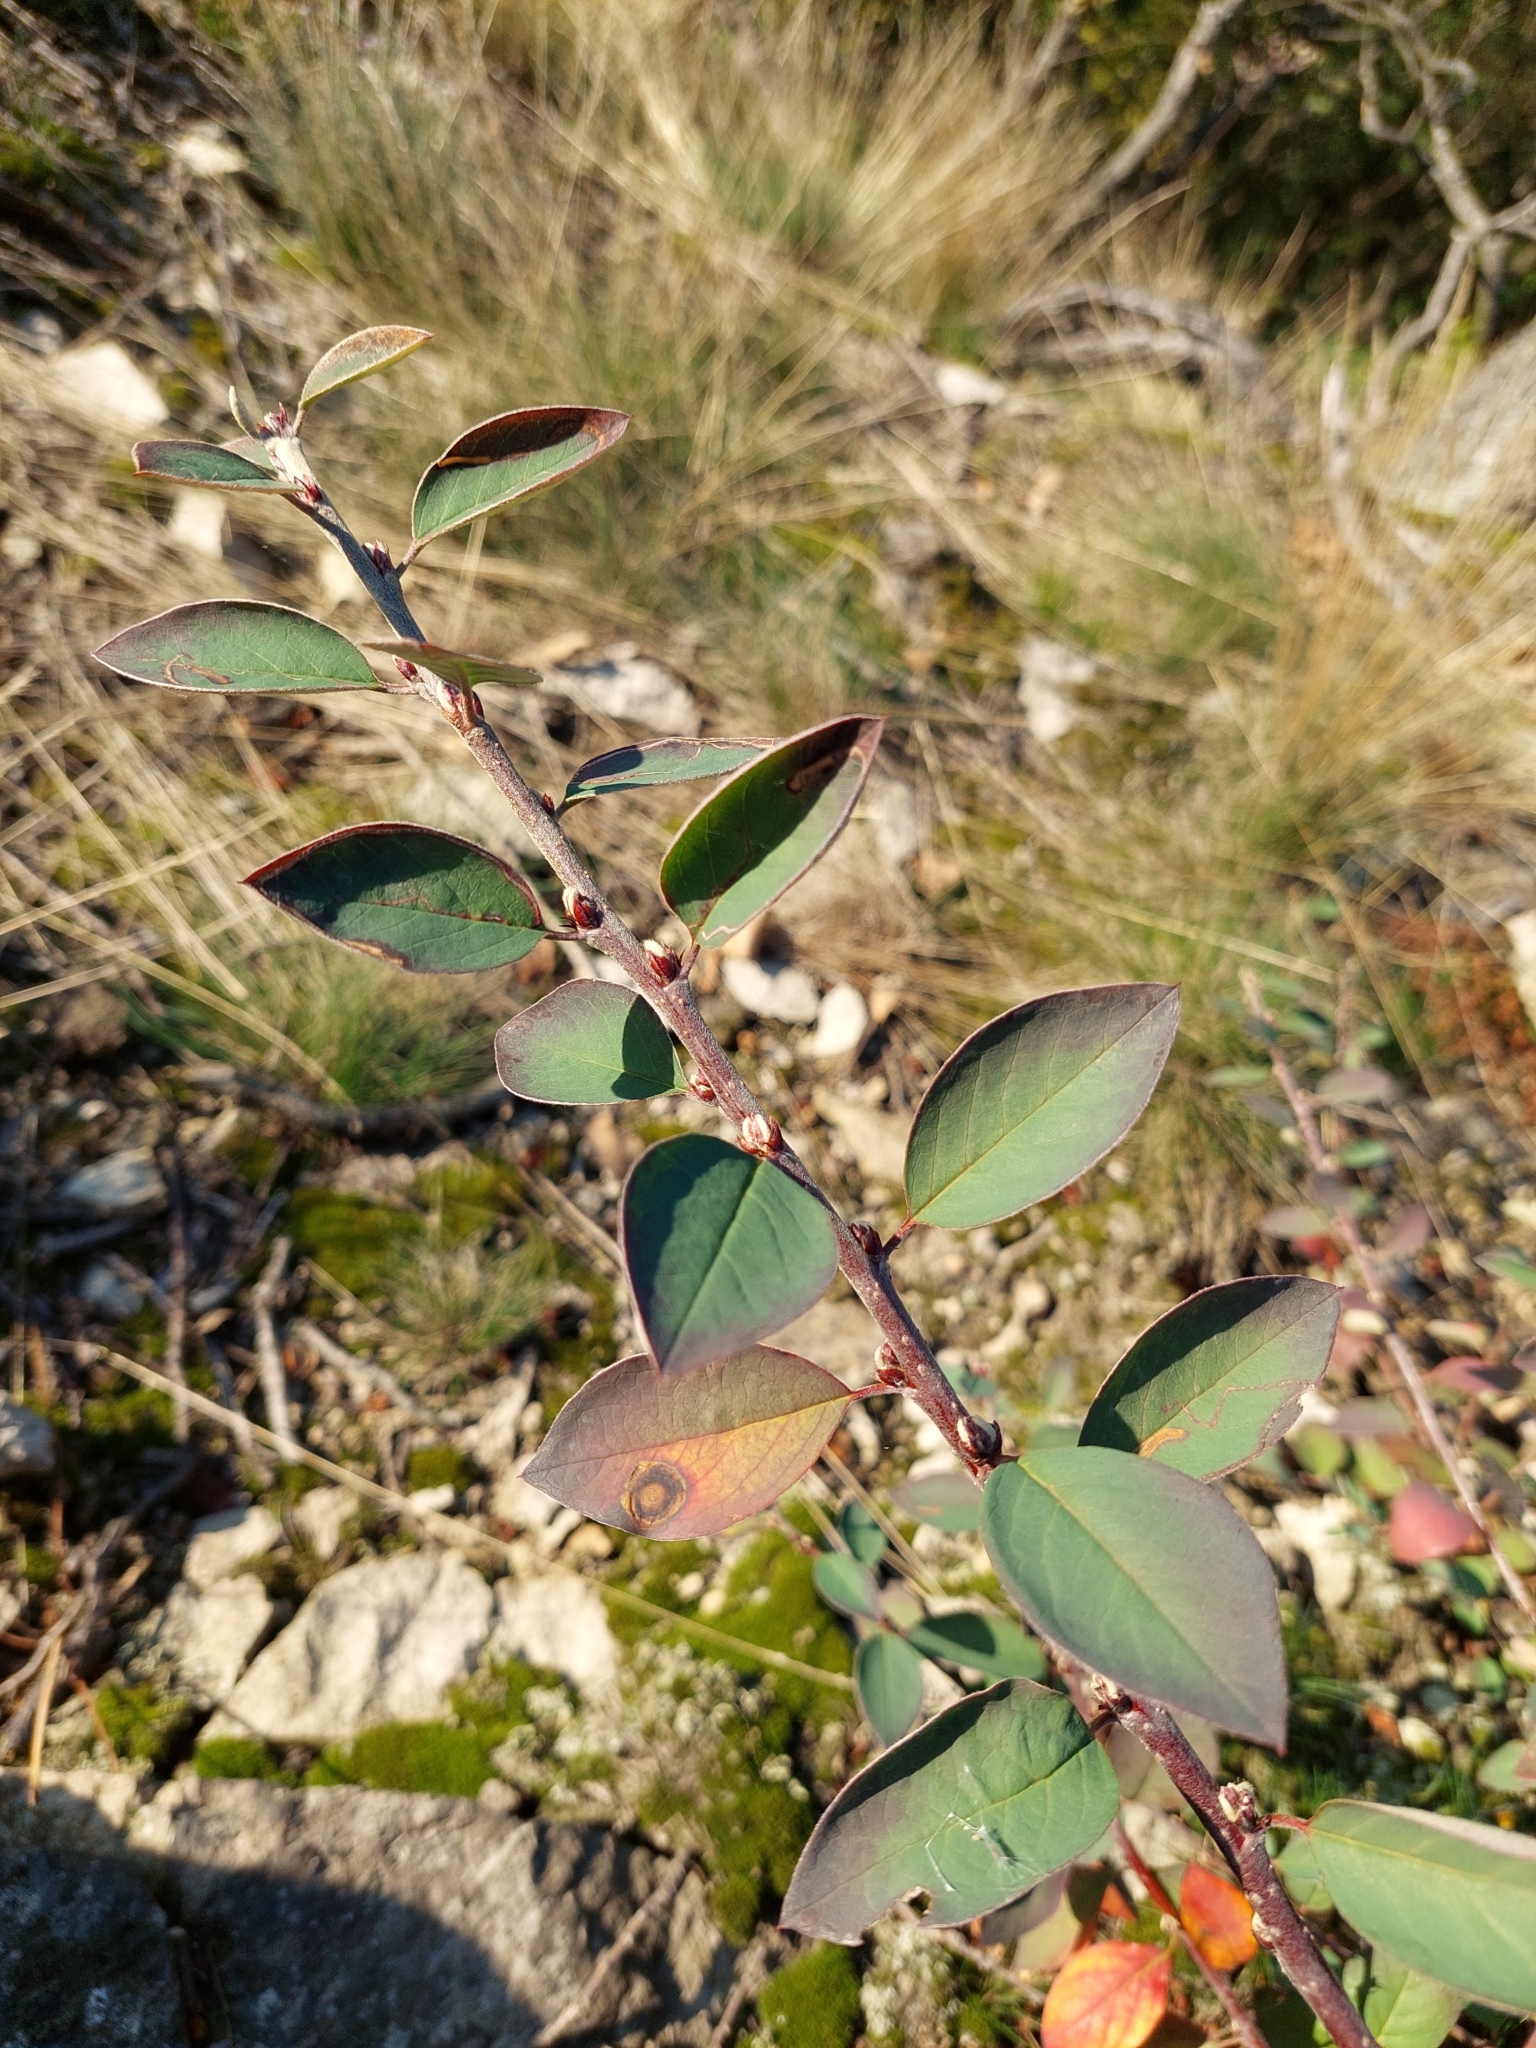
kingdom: Plantae
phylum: Tracheophyta
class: Magnoliopsida
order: Rosales
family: Rosaceae
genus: Cotoneaster
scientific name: Cotoneaster integerrimus
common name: Wild cotoneaster
